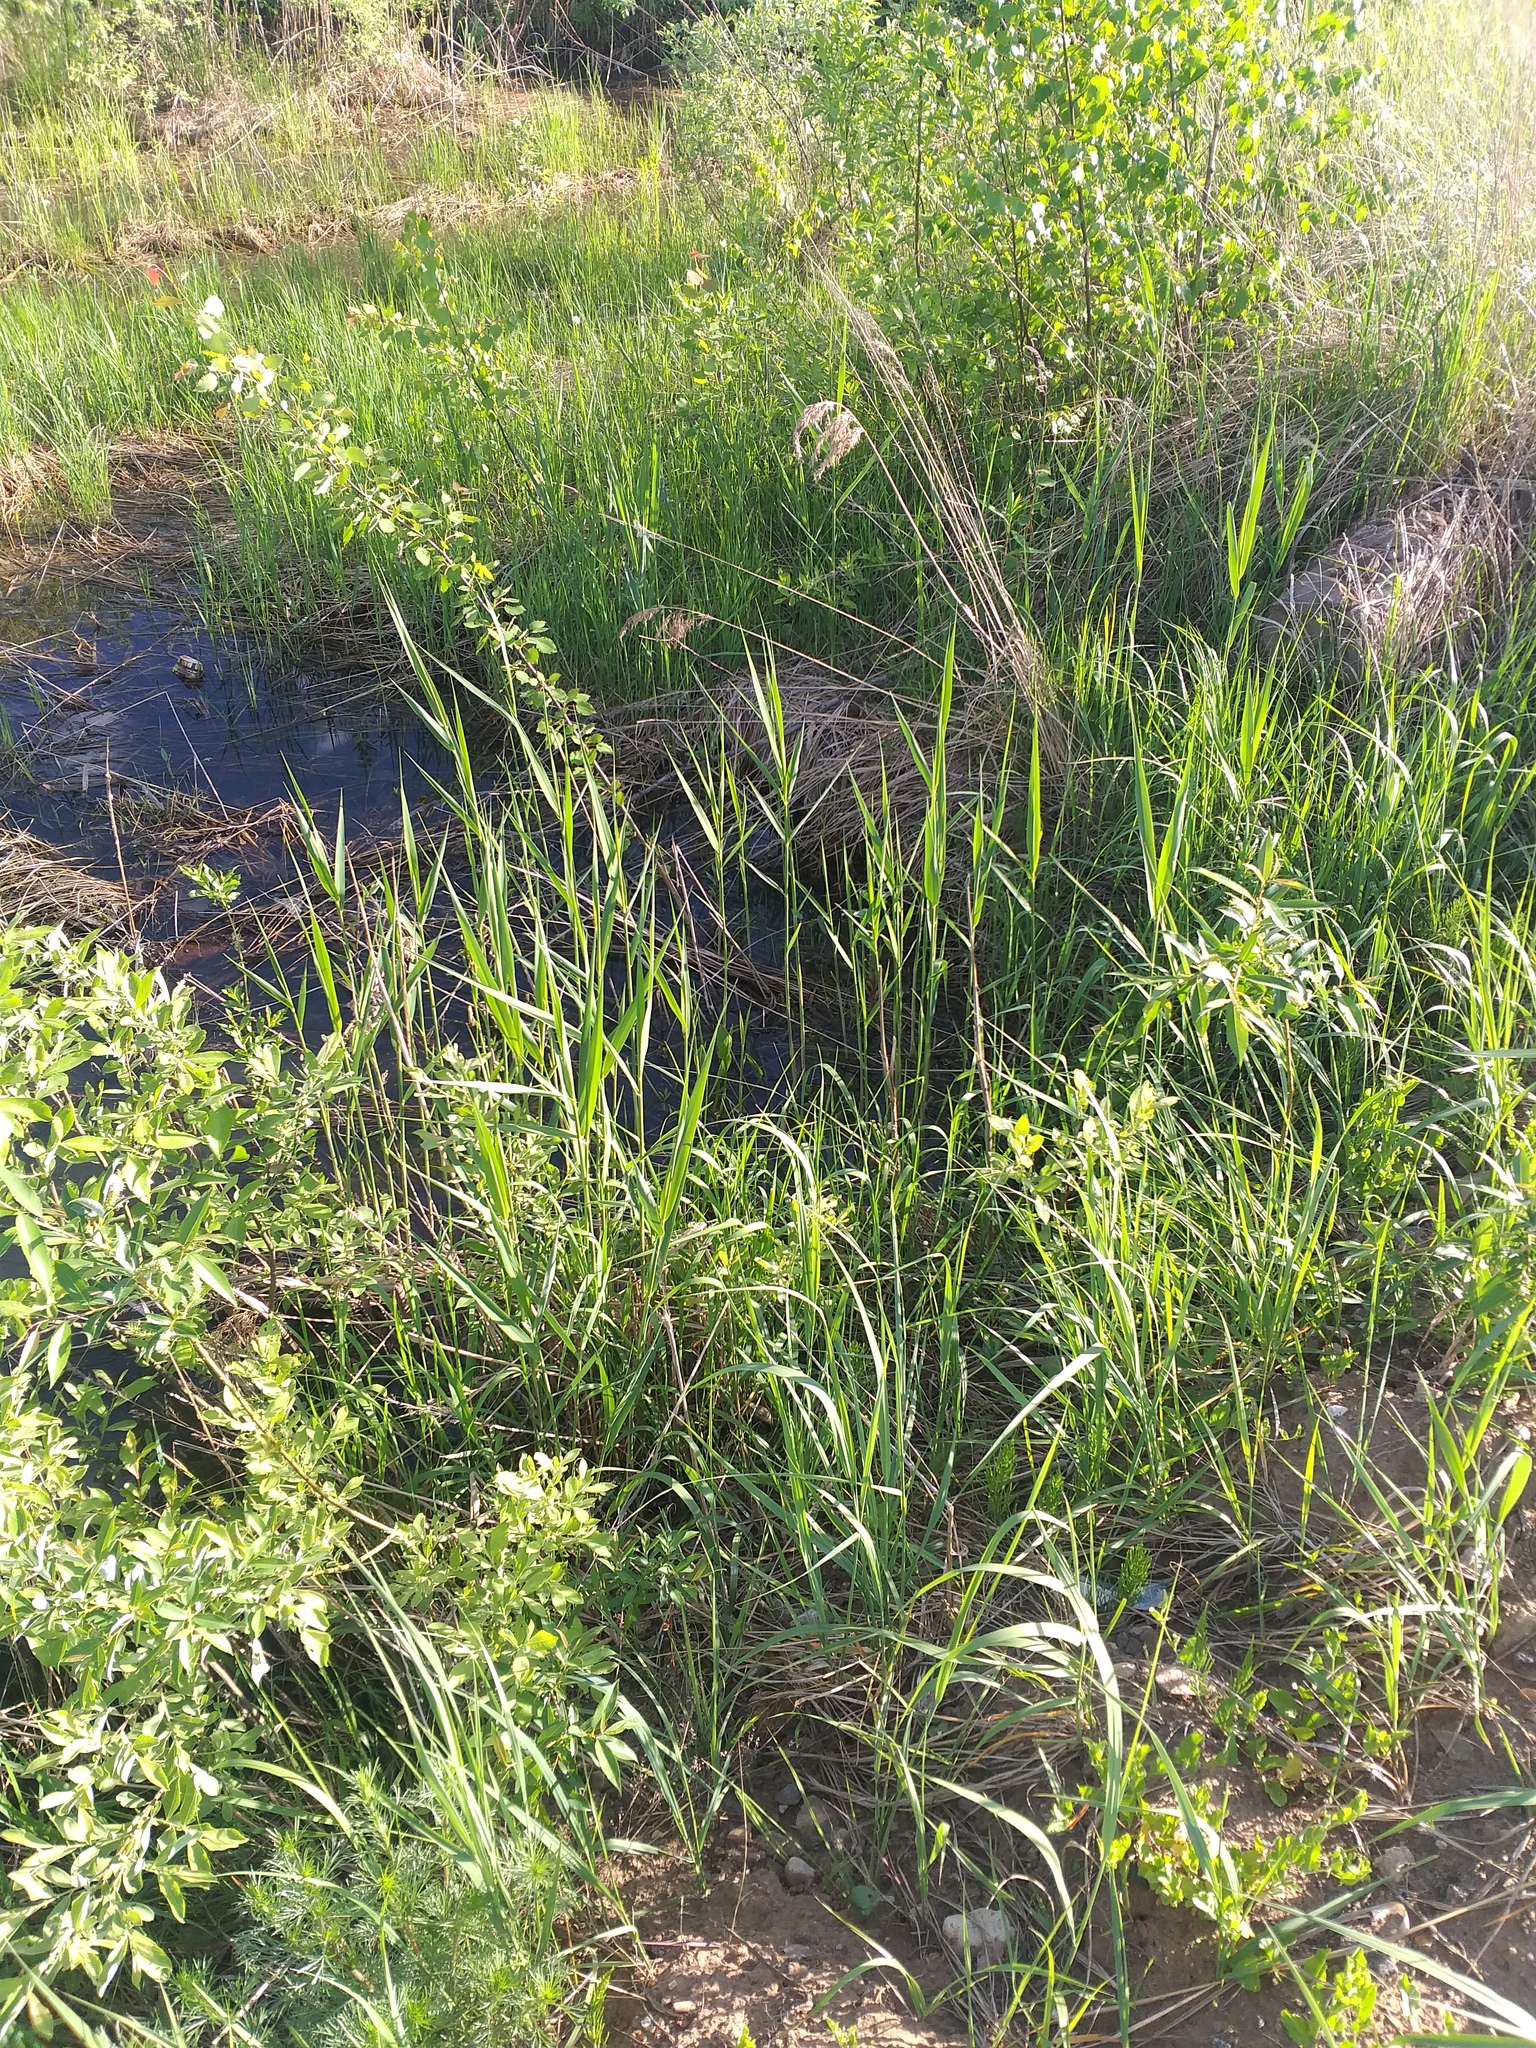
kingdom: Plantae
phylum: Tracheophyta
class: Liliopsida
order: Poales
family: Poaceae
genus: Phragmites
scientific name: Phragmites australis
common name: Common reed
